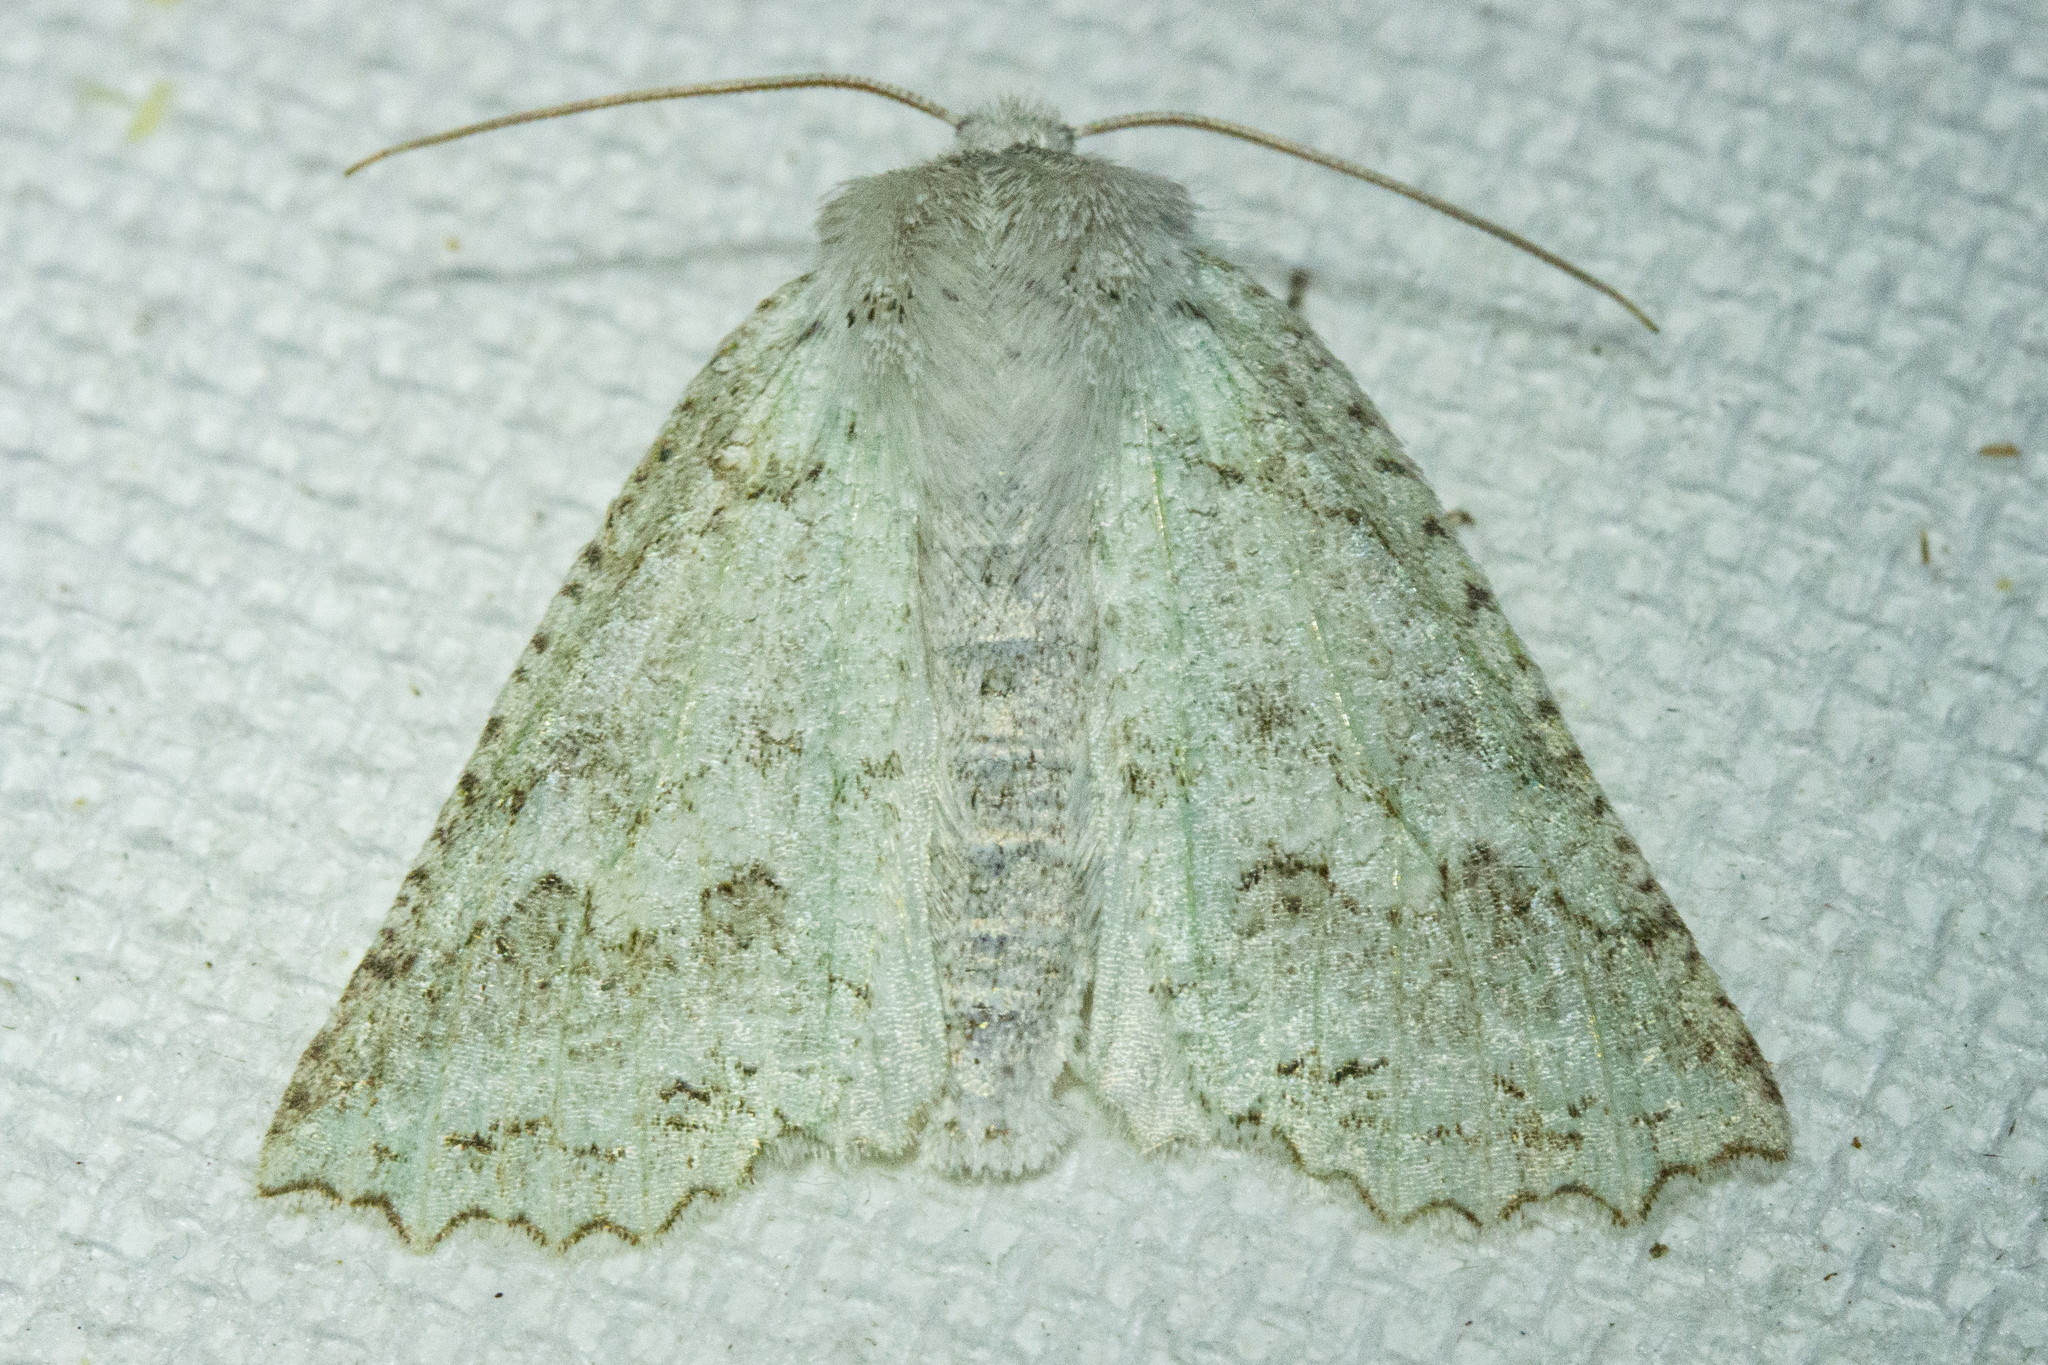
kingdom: Animalia
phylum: Arthropoda
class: Insecta
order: Lepidoptera
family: Geometridae
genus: Declana
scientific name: Declana niveata
